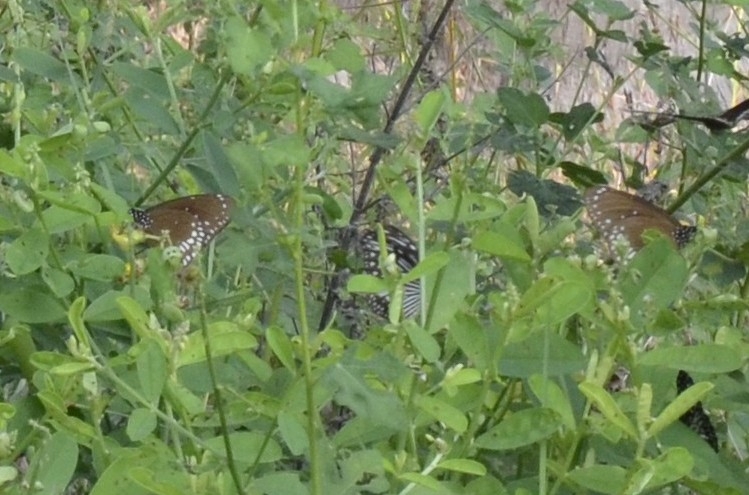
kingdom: Animalia
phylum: Arthropoda
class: Insecta
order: Lepidoptera
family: Nymphalidae
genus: Euploea
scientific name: Euploea core
